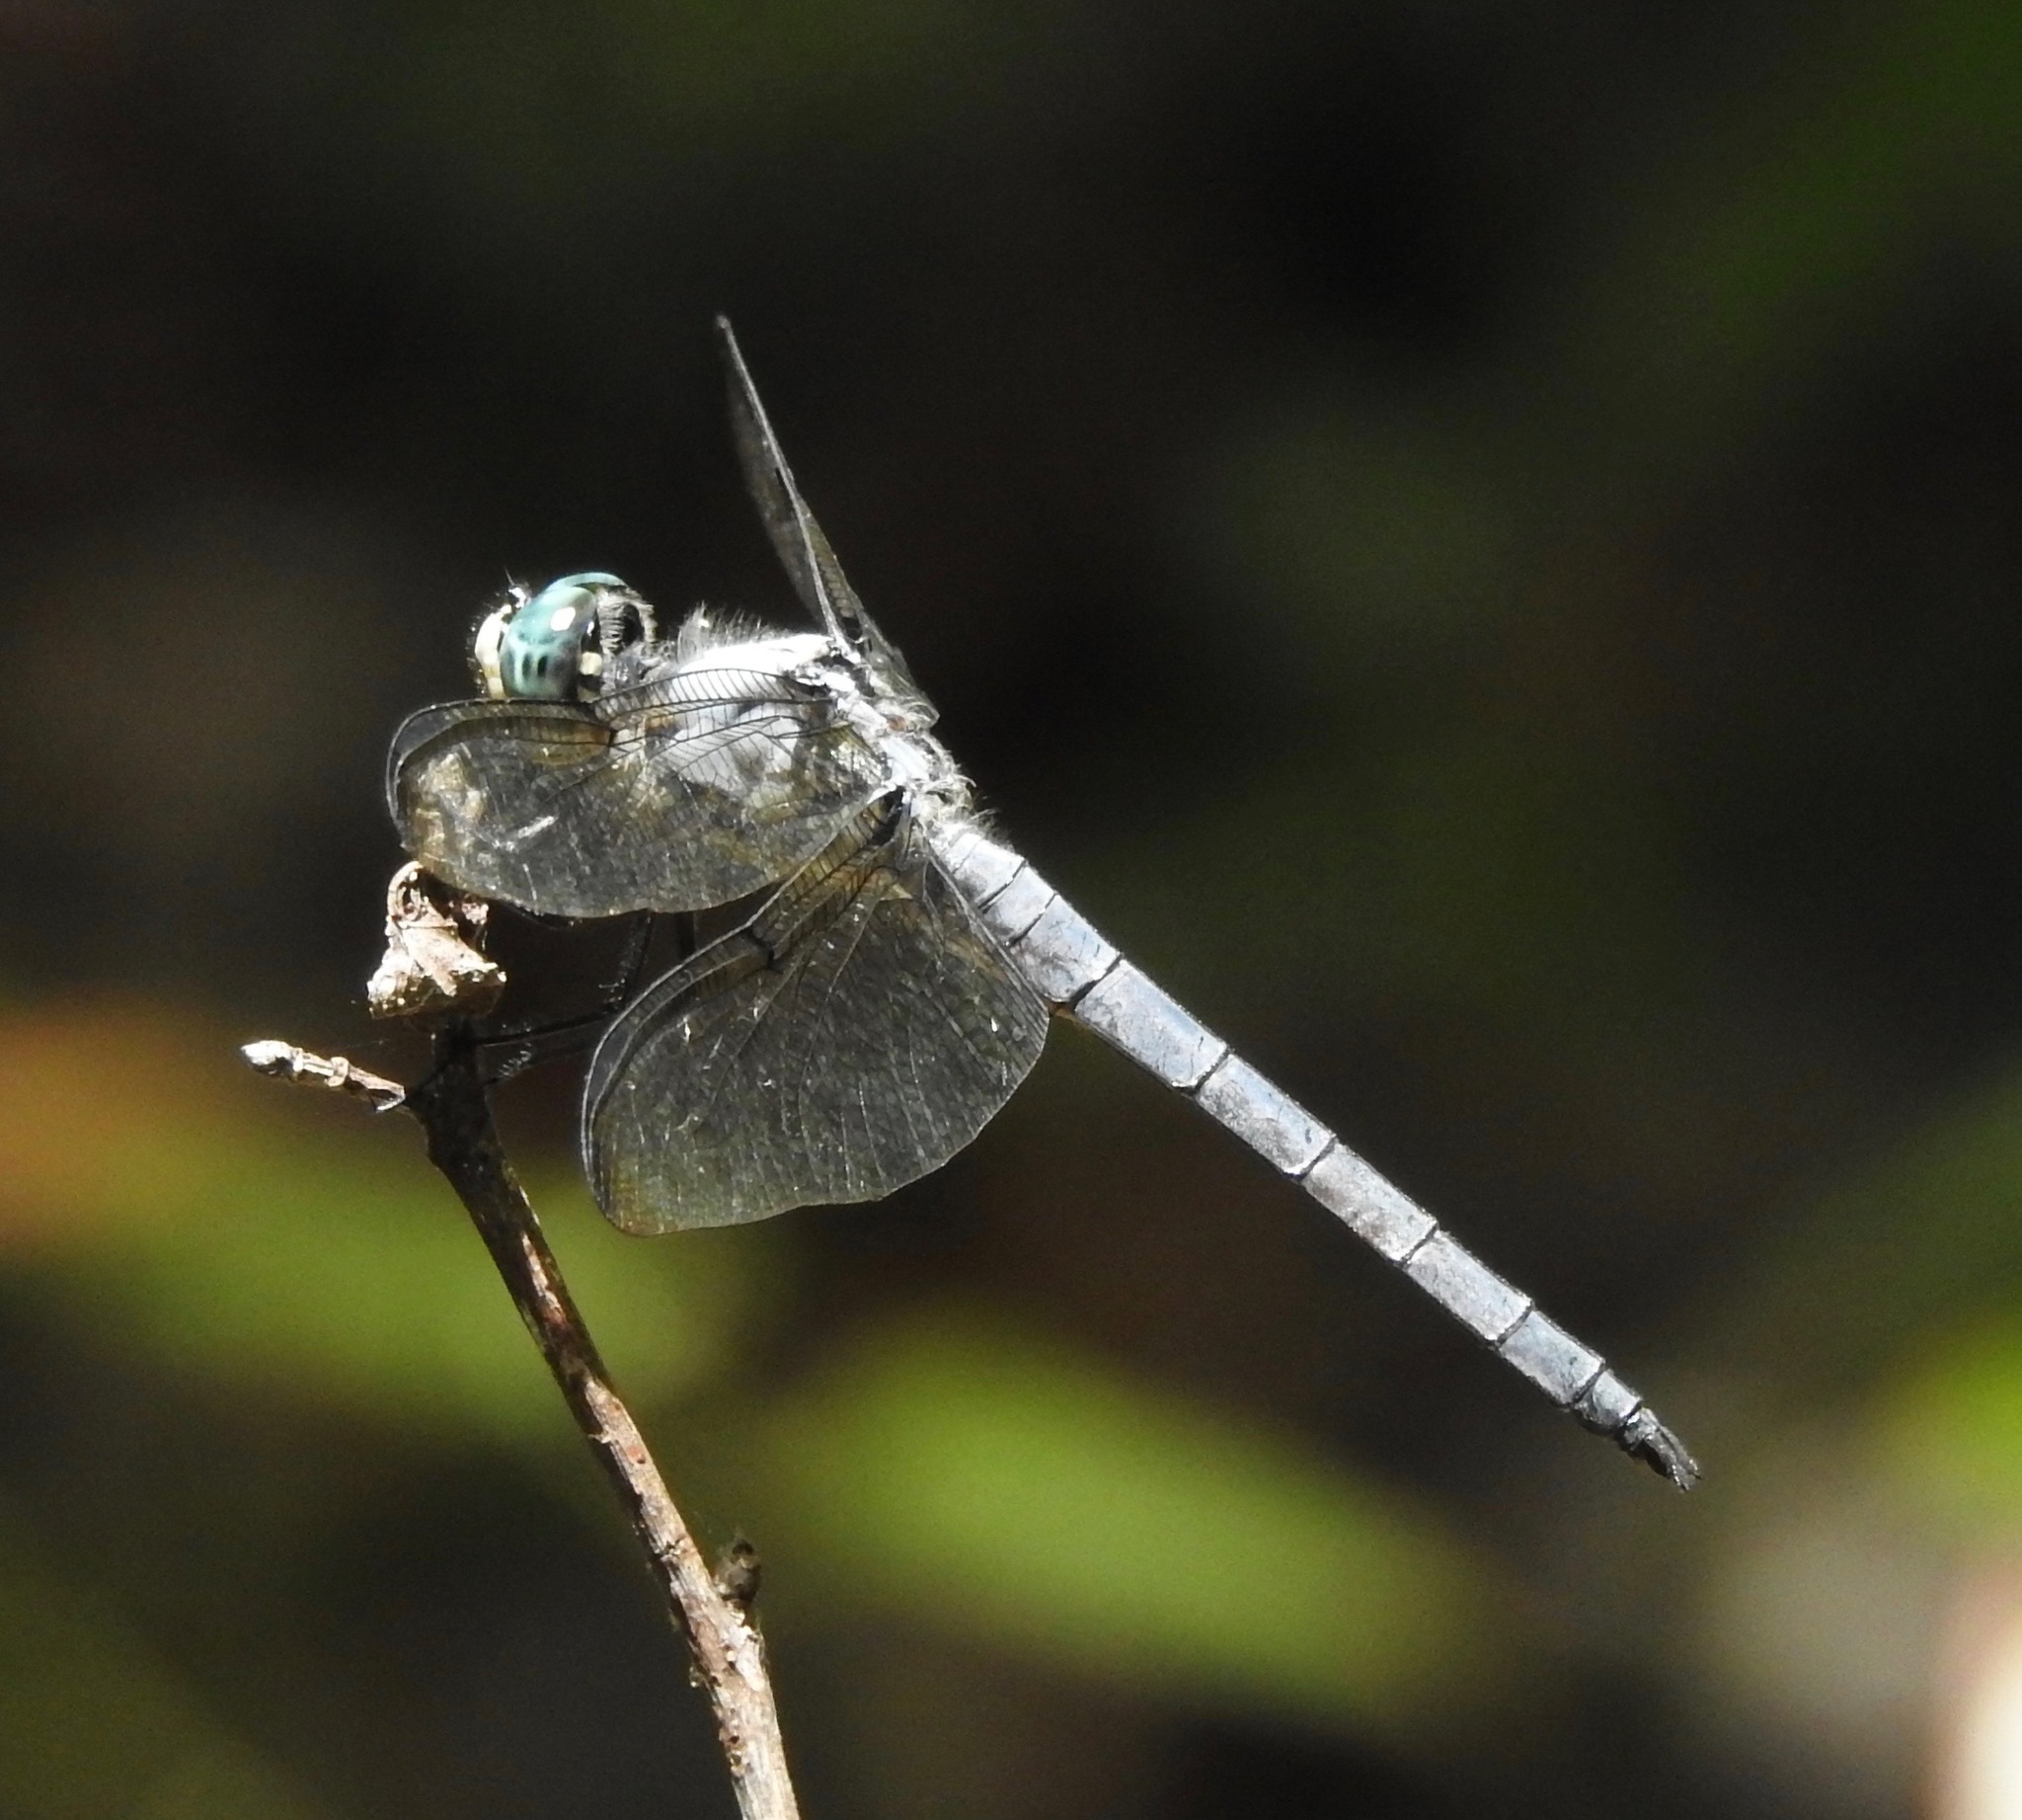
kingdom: Animalia
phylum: Arthropoda
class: Insecta
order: Odonata
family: Libellulidae
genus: Libellula
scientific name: Libellula vibrans
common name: Great blue skimmer
